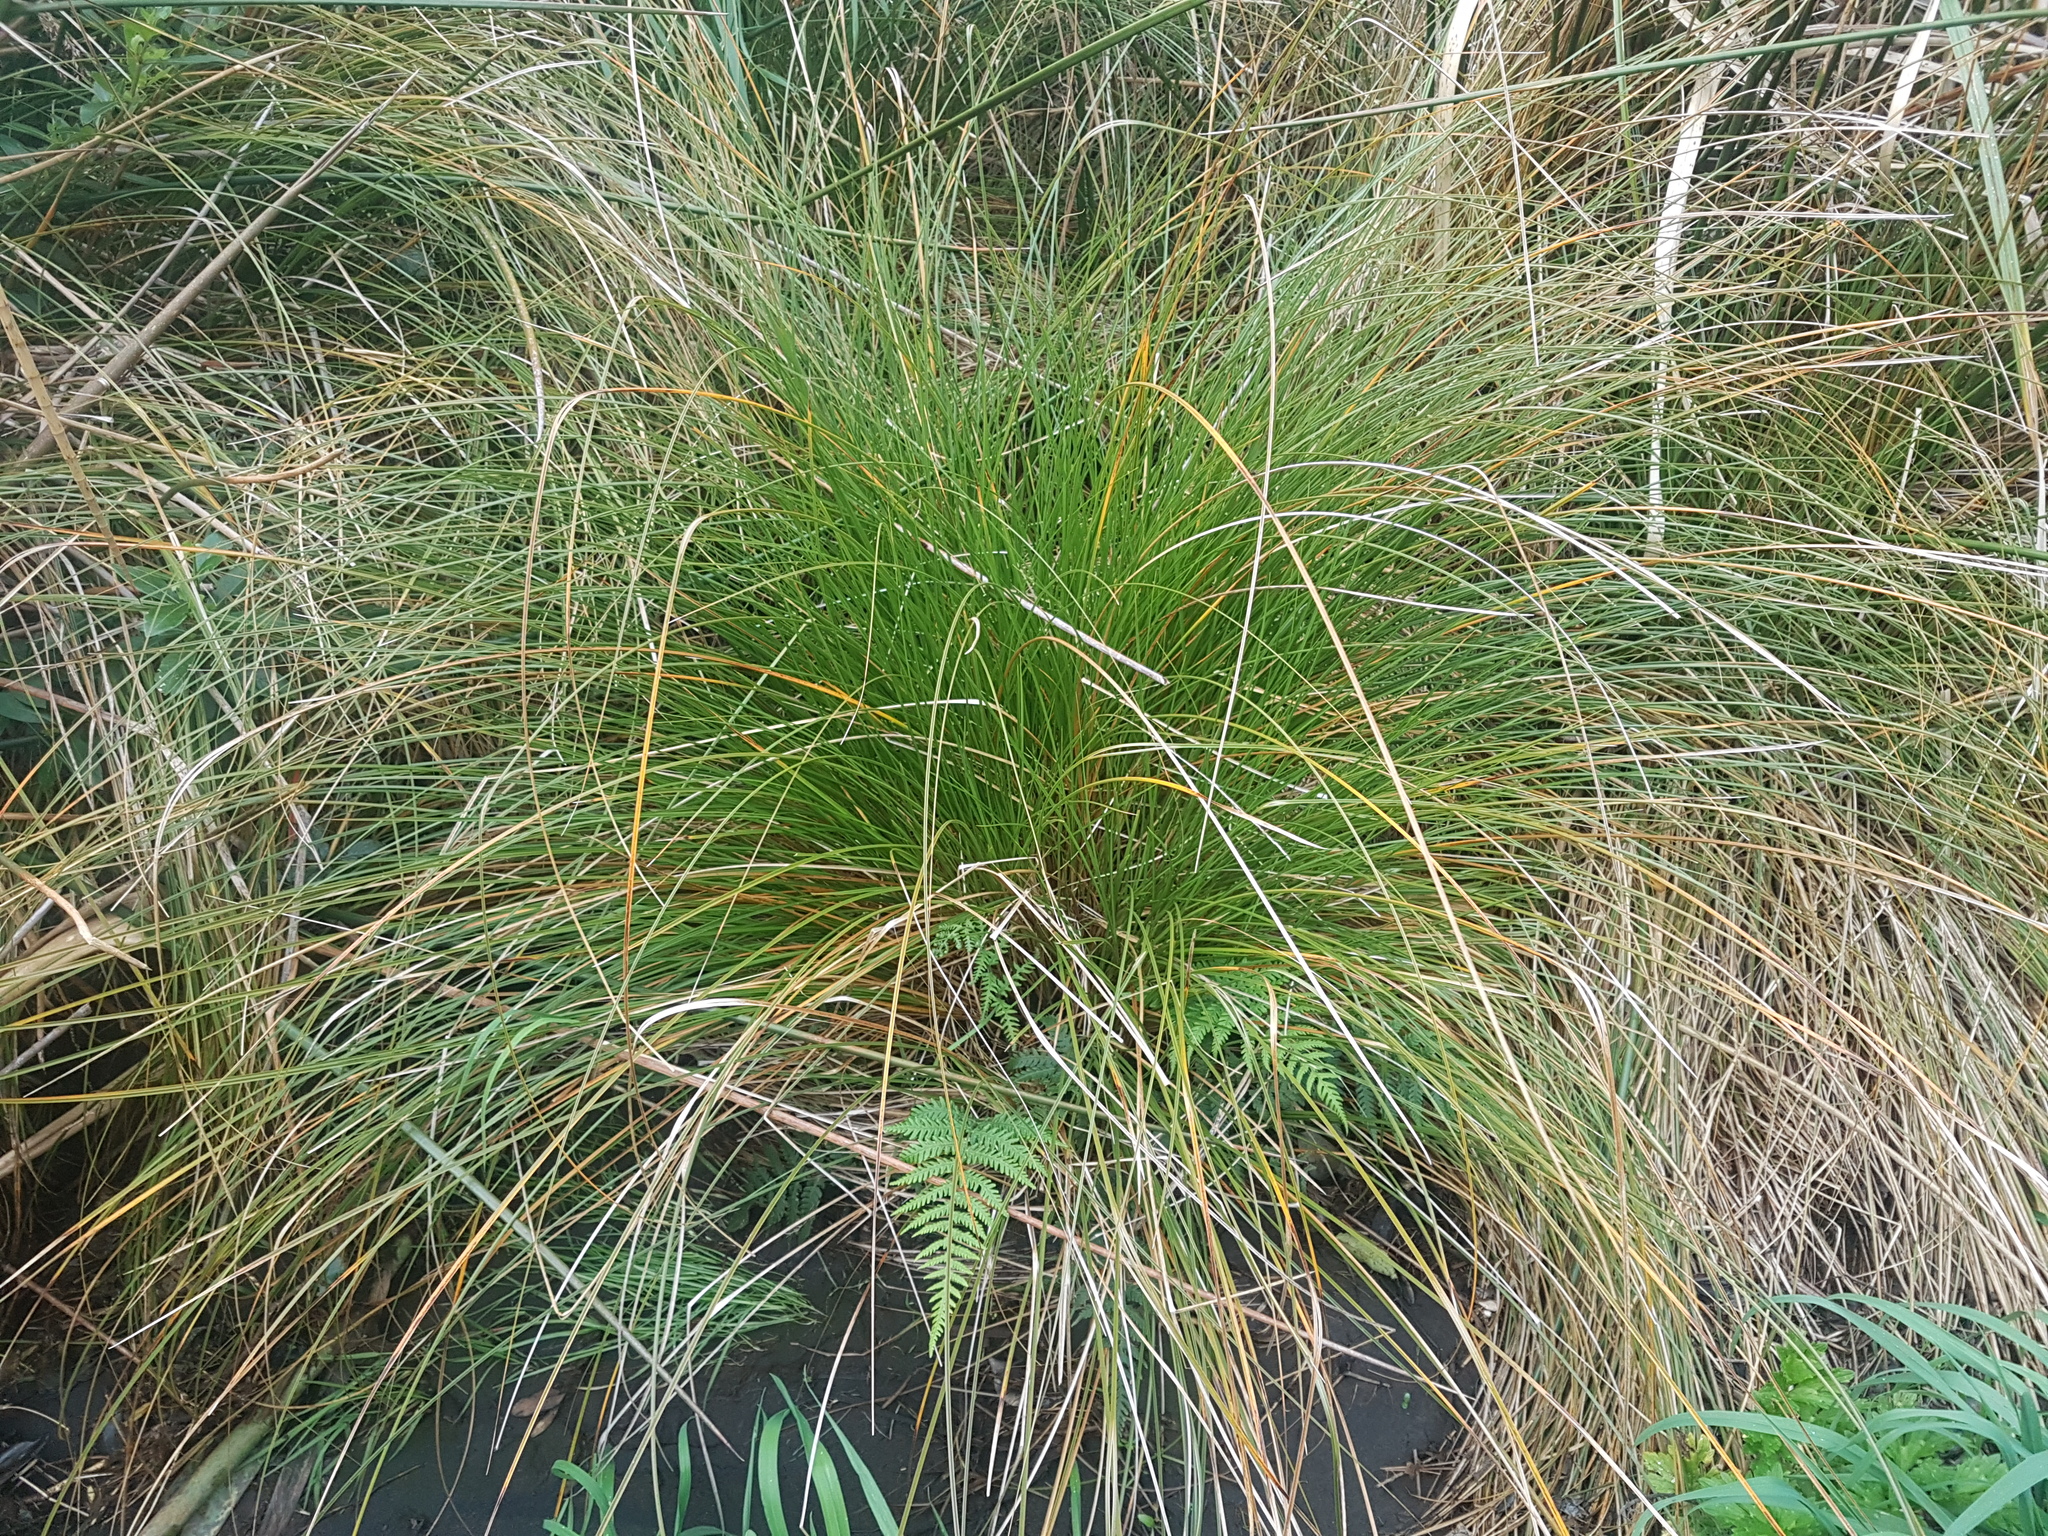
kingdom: Plantae
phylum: Tracheophyta
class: Liliopsida
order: Poales
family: Cyperaceae
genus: Carex
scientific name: Carex secta
